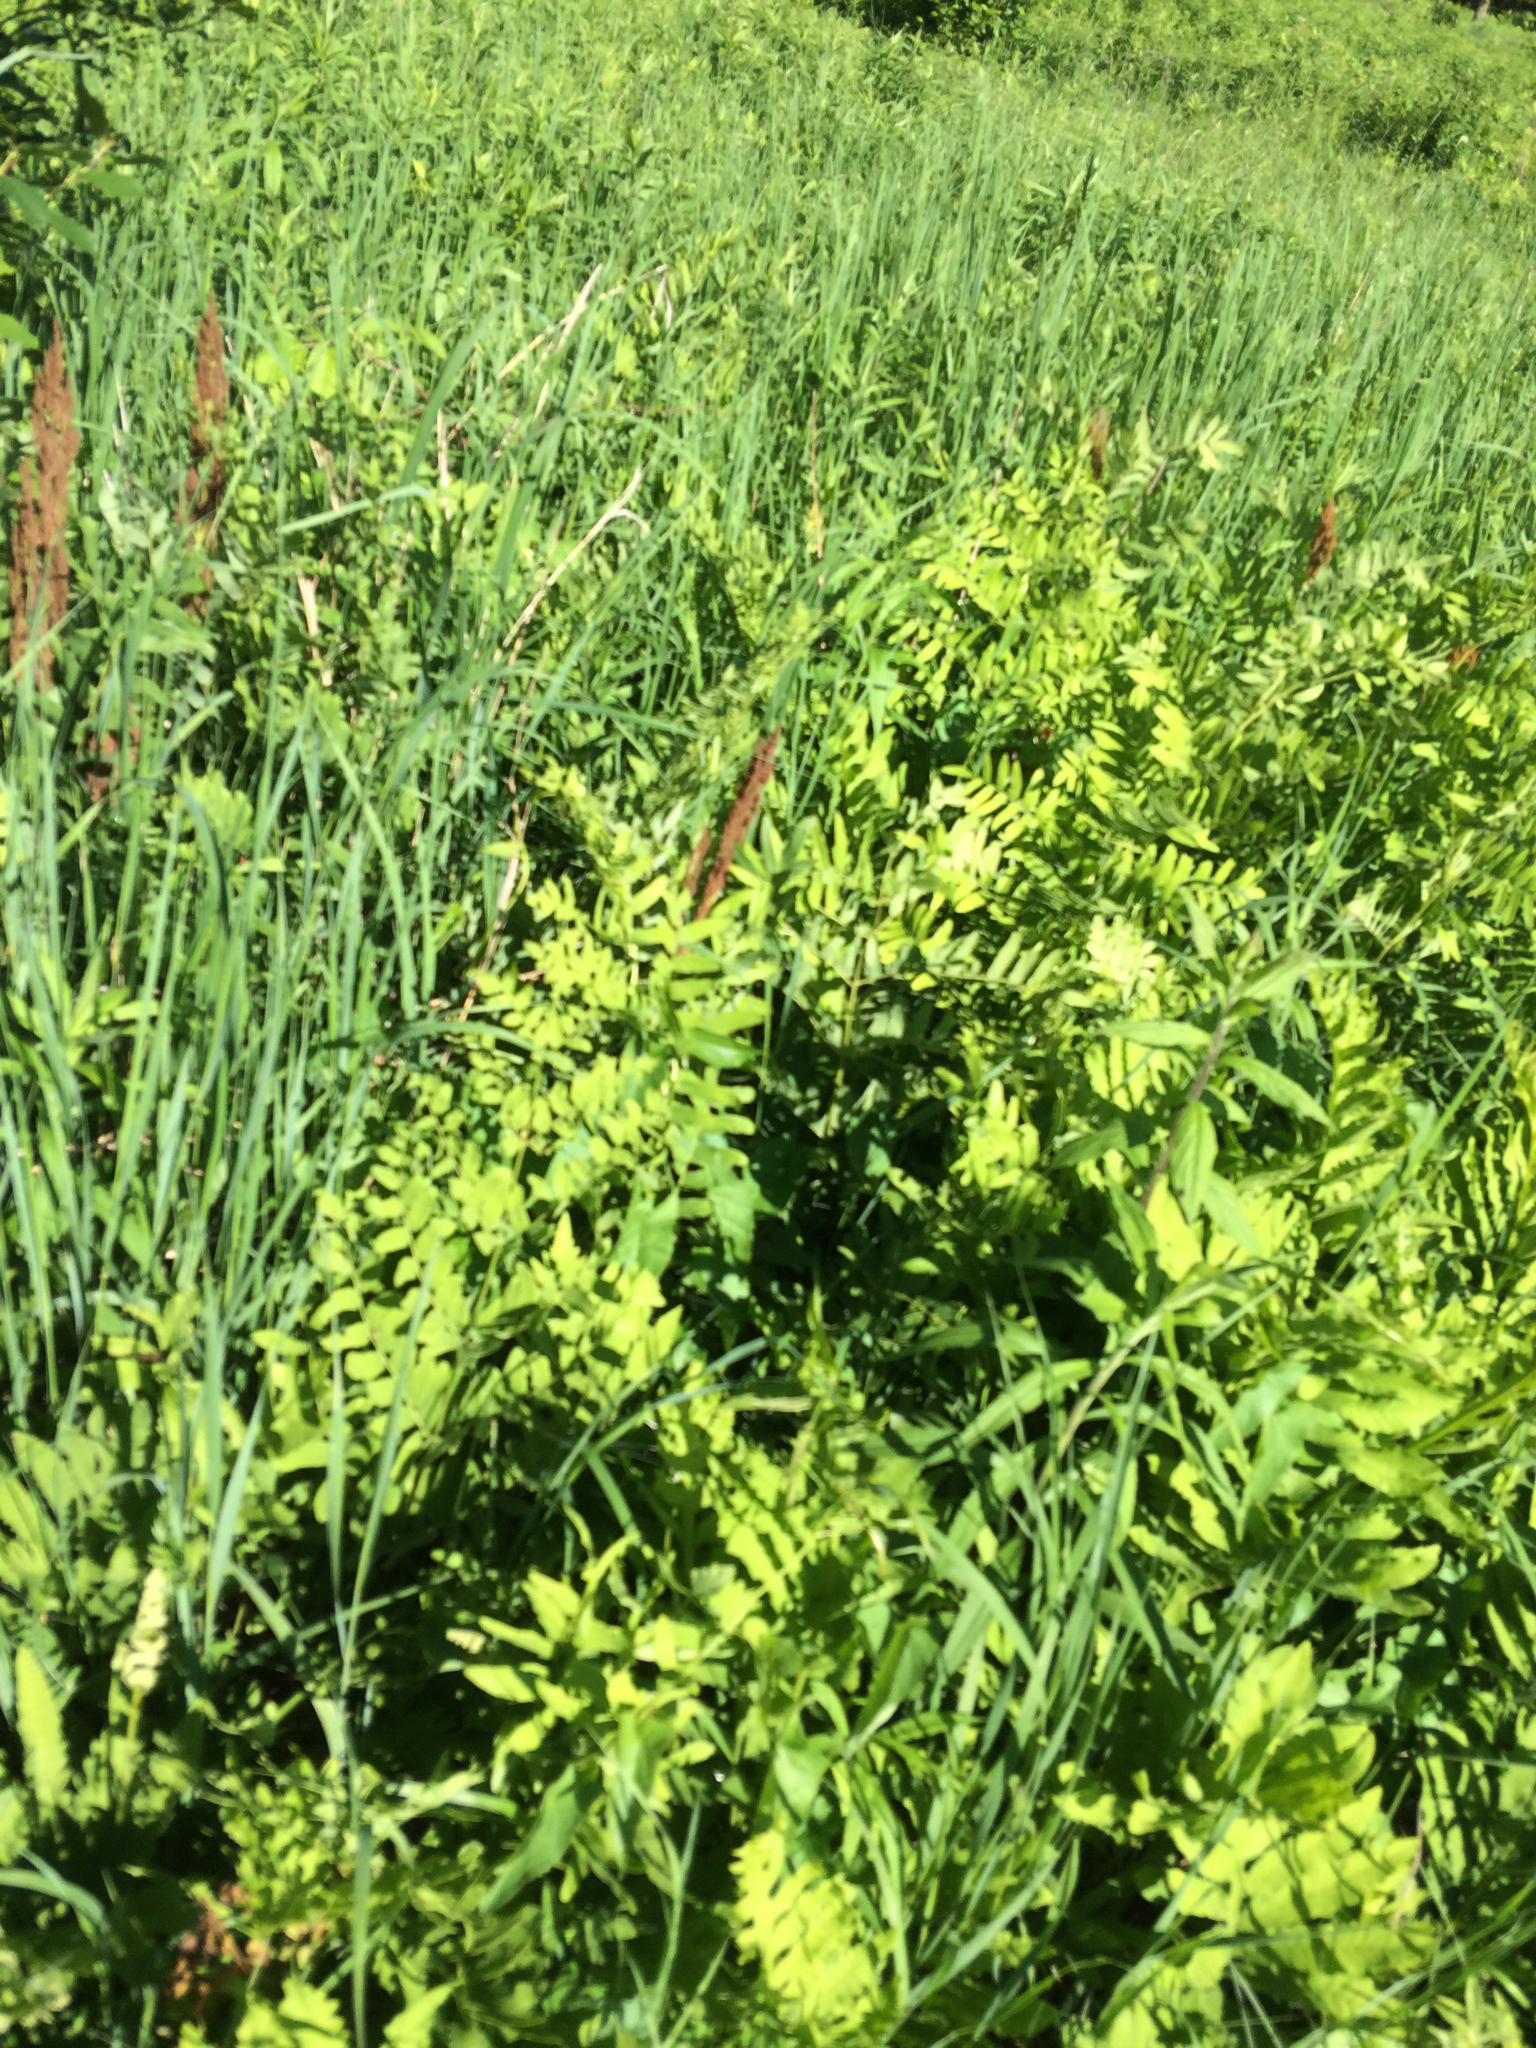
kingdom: Plantae
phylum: Tracheophyta
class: Polypodiopsida
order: Osmundales
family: Osmundaceae
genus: Osmunda
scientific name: Osmunda spectabilis
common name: American royal fern
